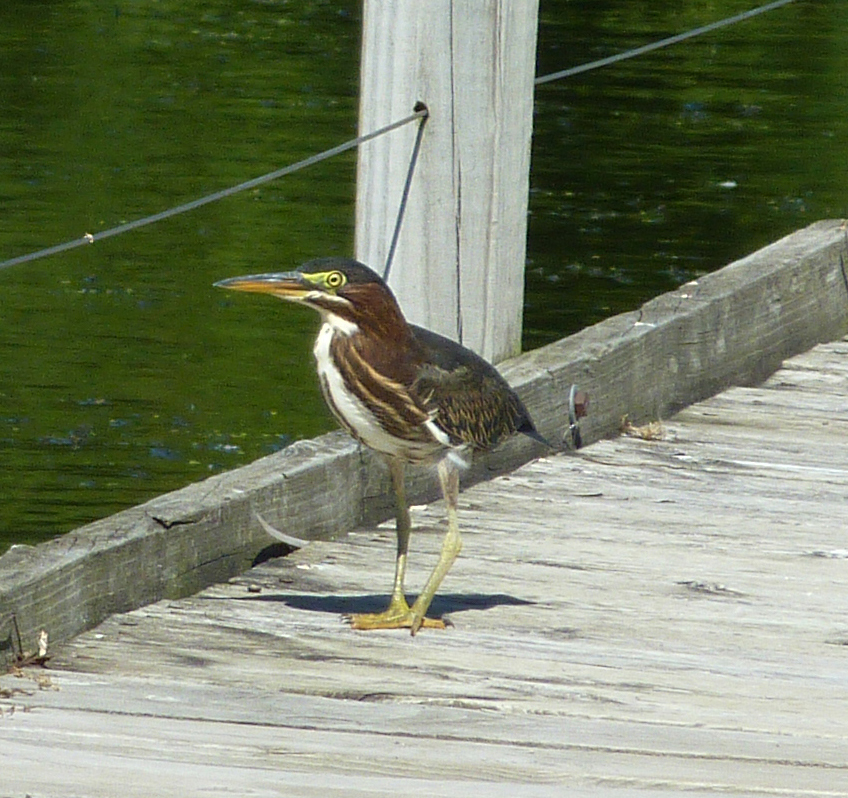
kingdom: Animalia
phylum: Chordata
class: Aves
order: Pelecaniformes
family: Ardeidae
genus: Butorides
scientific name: Butorides virescens
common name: Green heron
